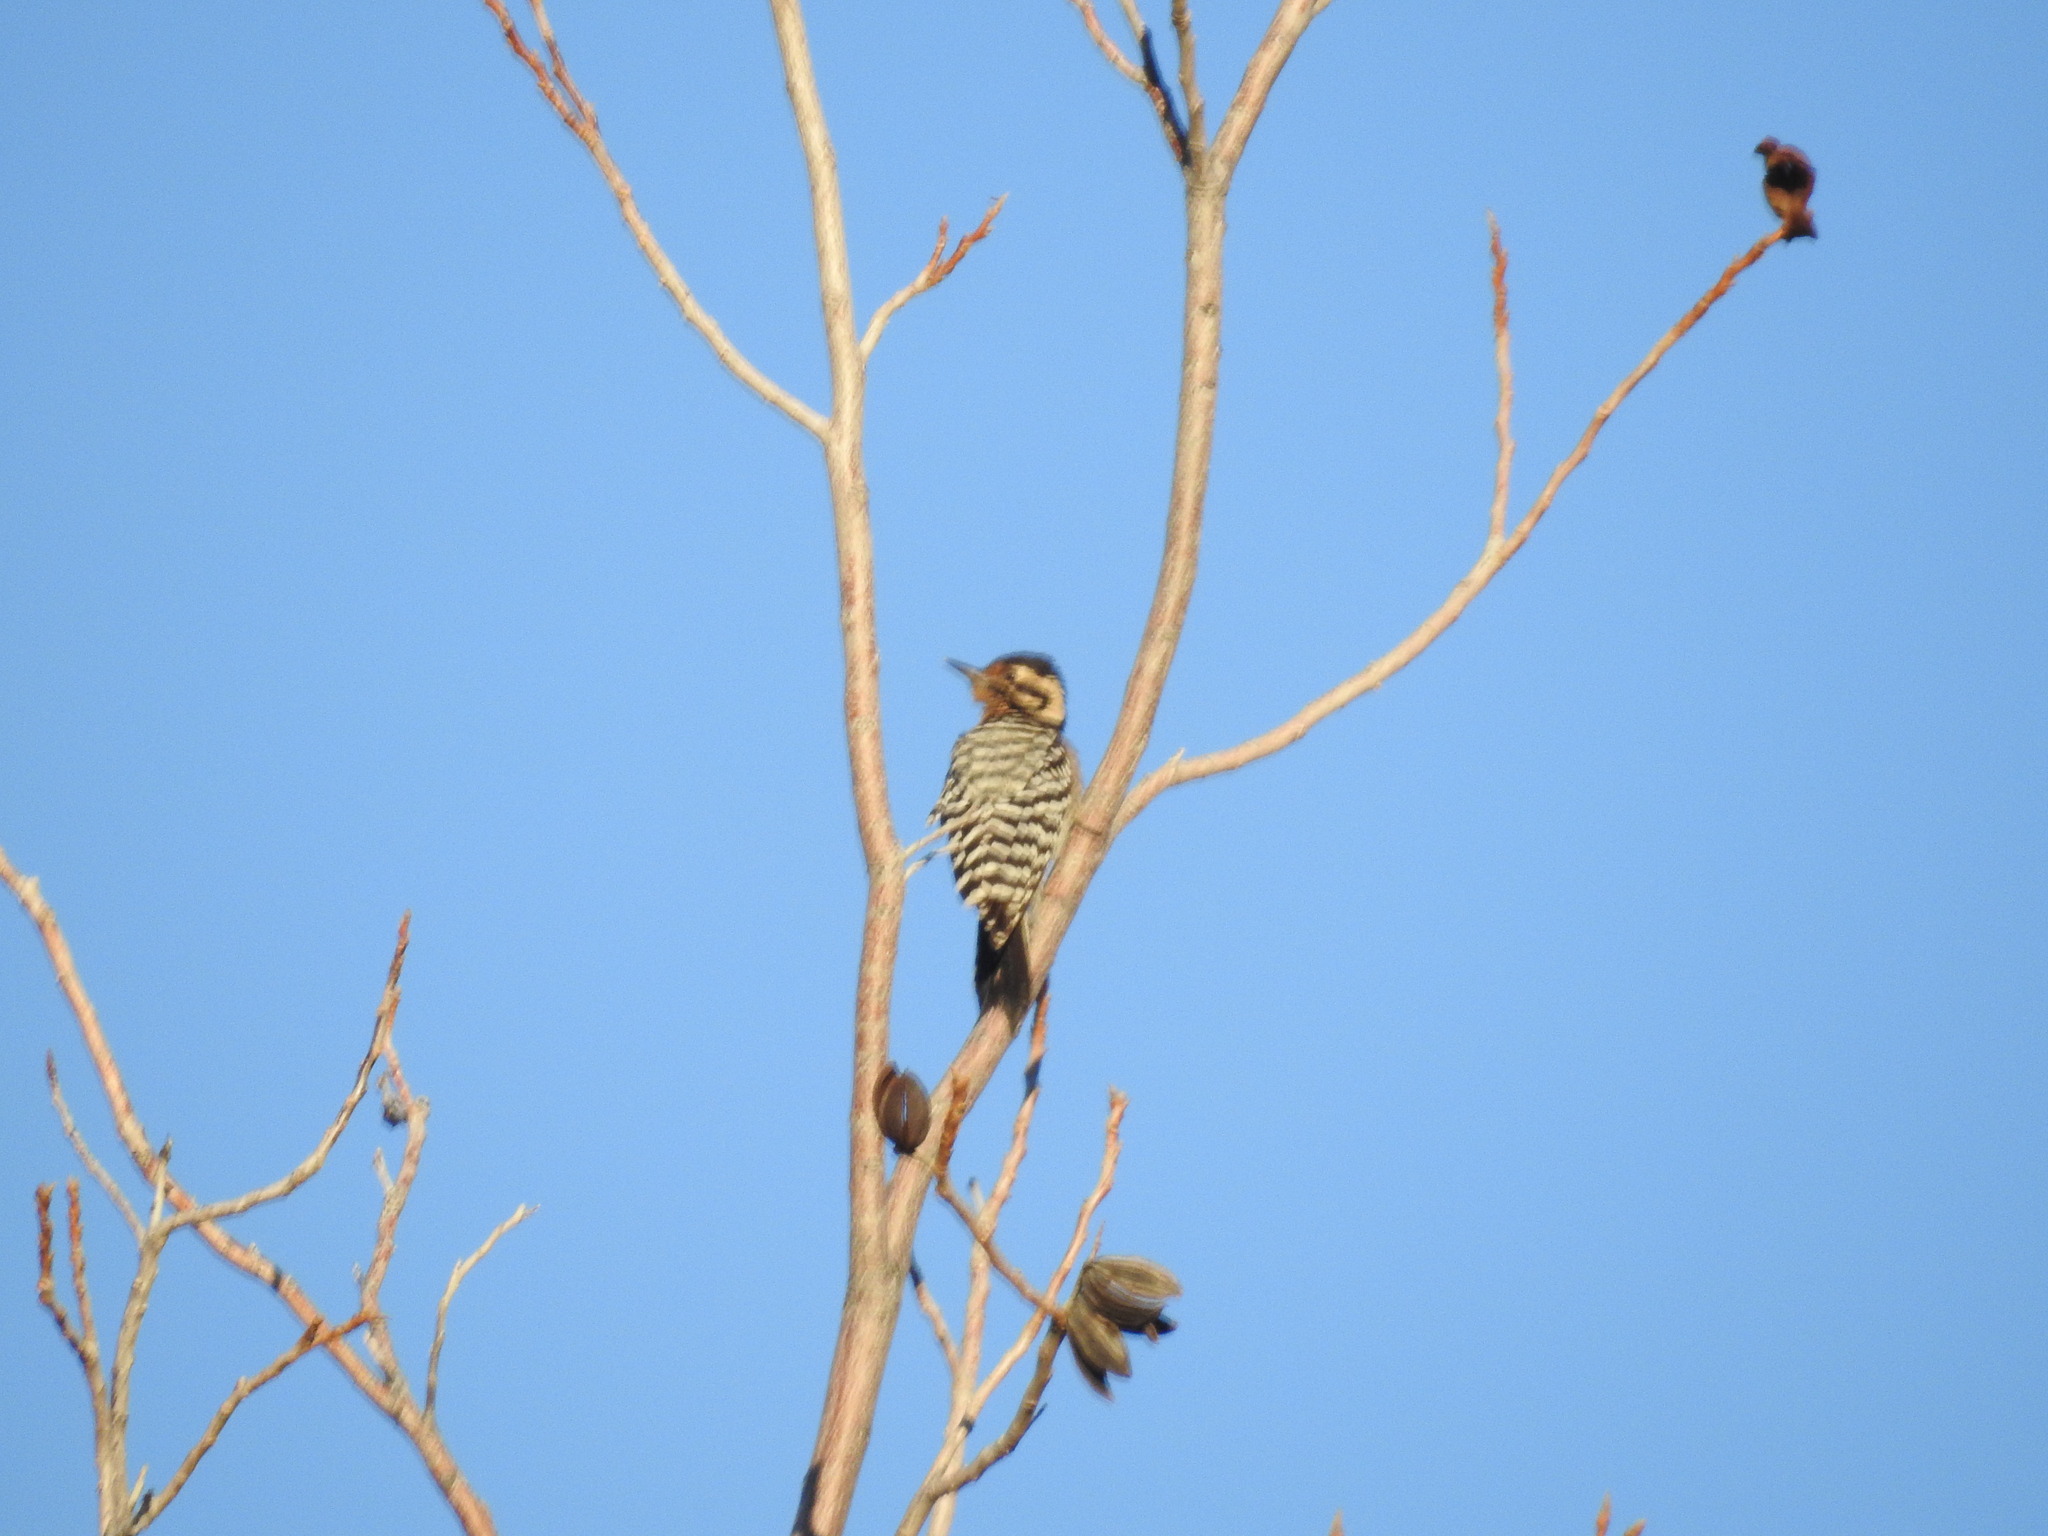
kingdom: Animalia
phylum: Chordata
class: Aves
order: Piciformes
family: Picidae
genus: Dryobates
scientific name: Dryobates scalaris
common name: Ladder-backed woodpecker
